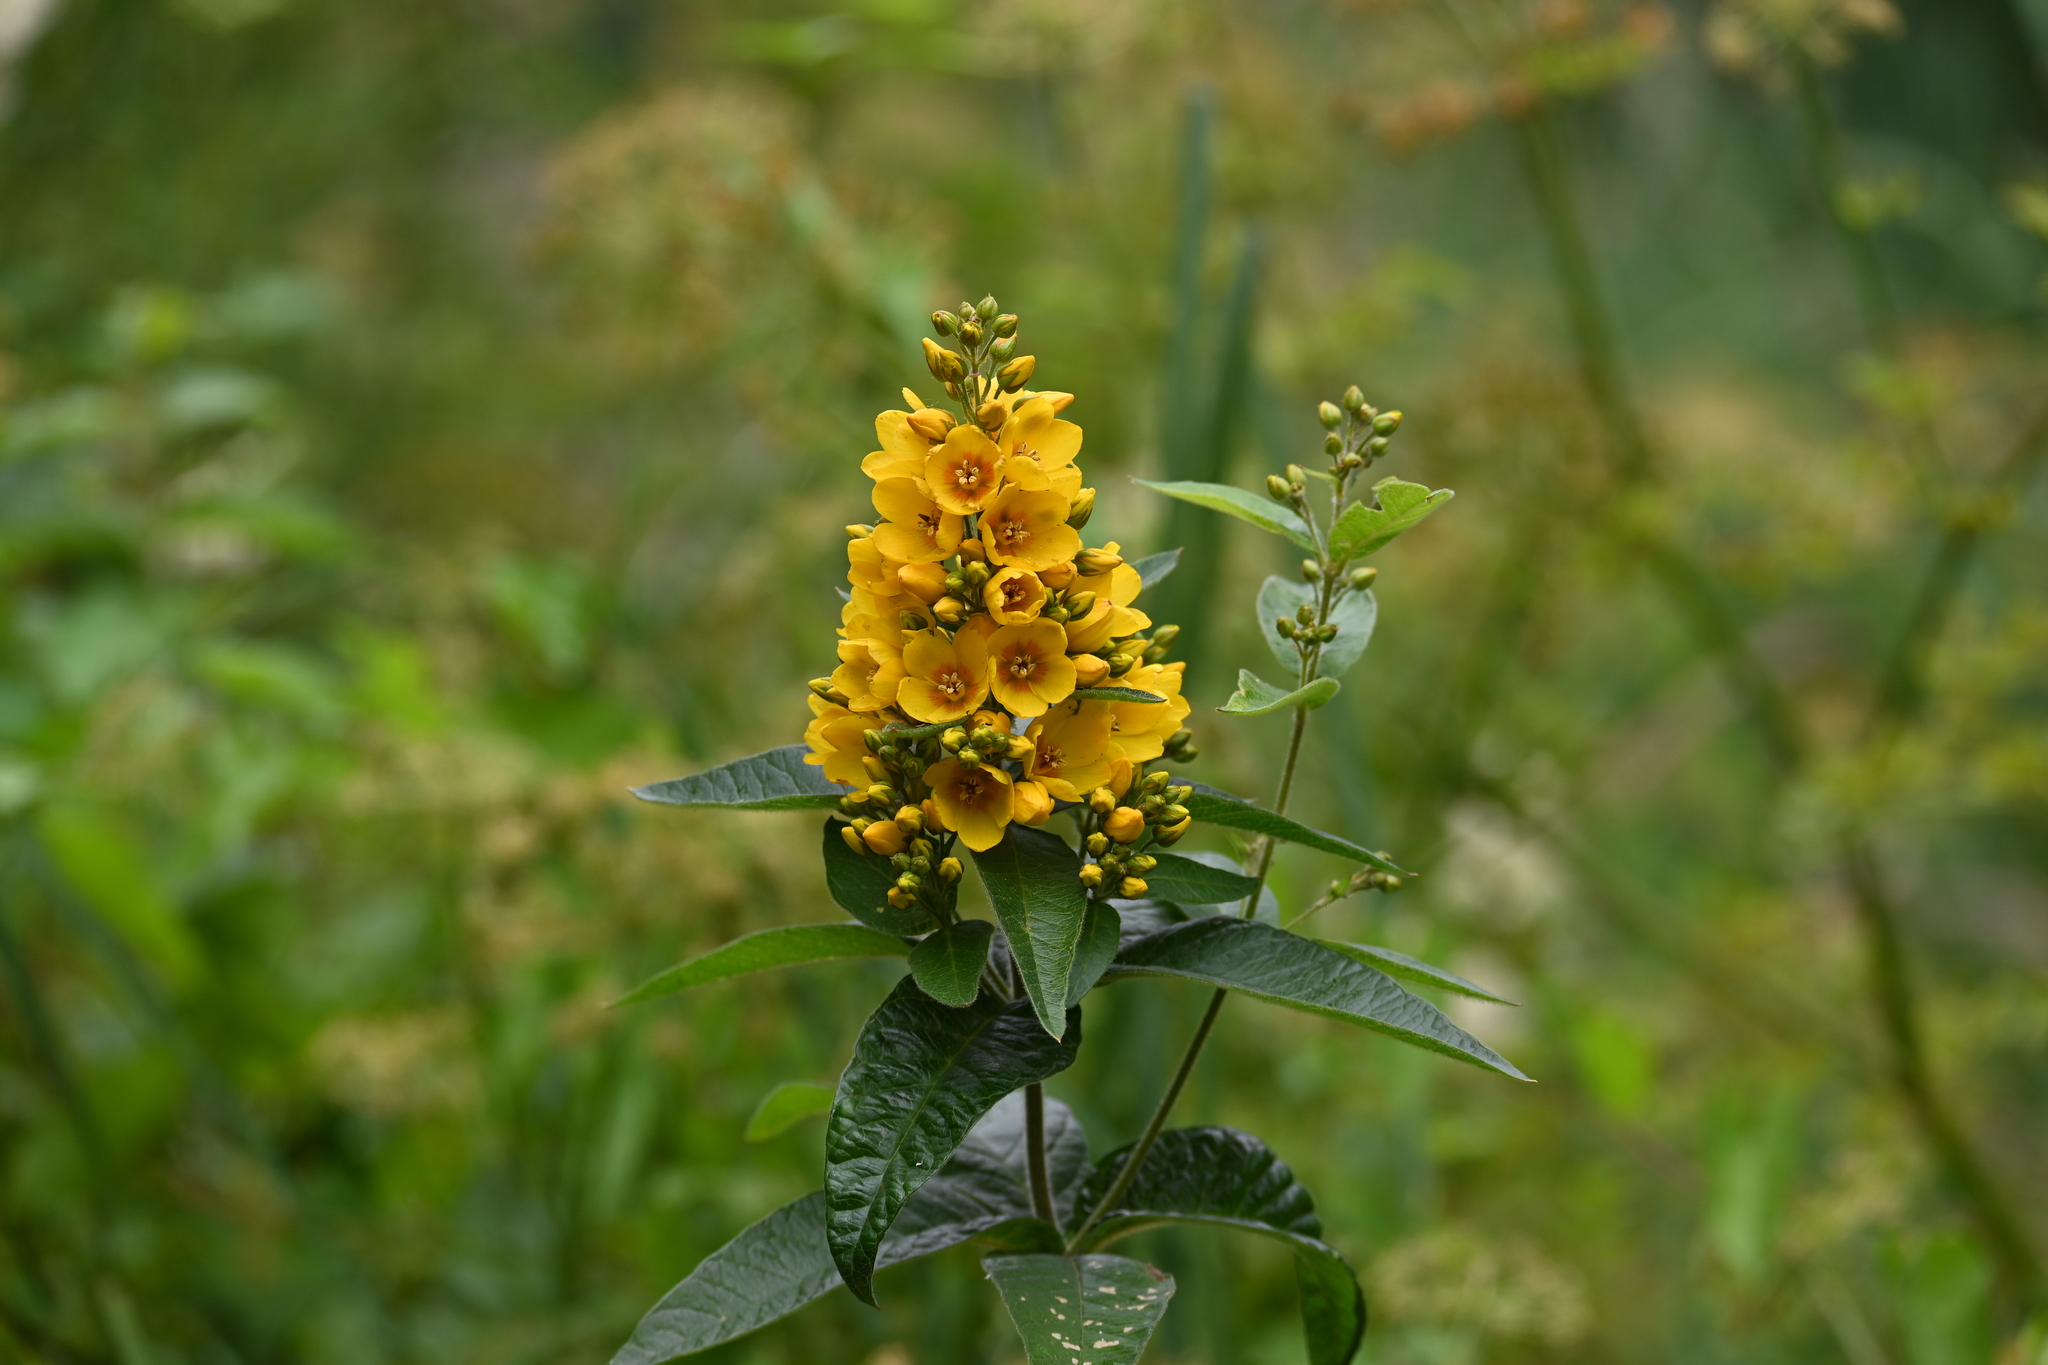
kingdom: Plantae
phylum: Tracheophyta
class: Magnoliopsida
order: Ericales
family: Primulaceae
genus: Lysimachia
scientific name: Lysimachia vulgaris
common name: Yellow loosestrife
